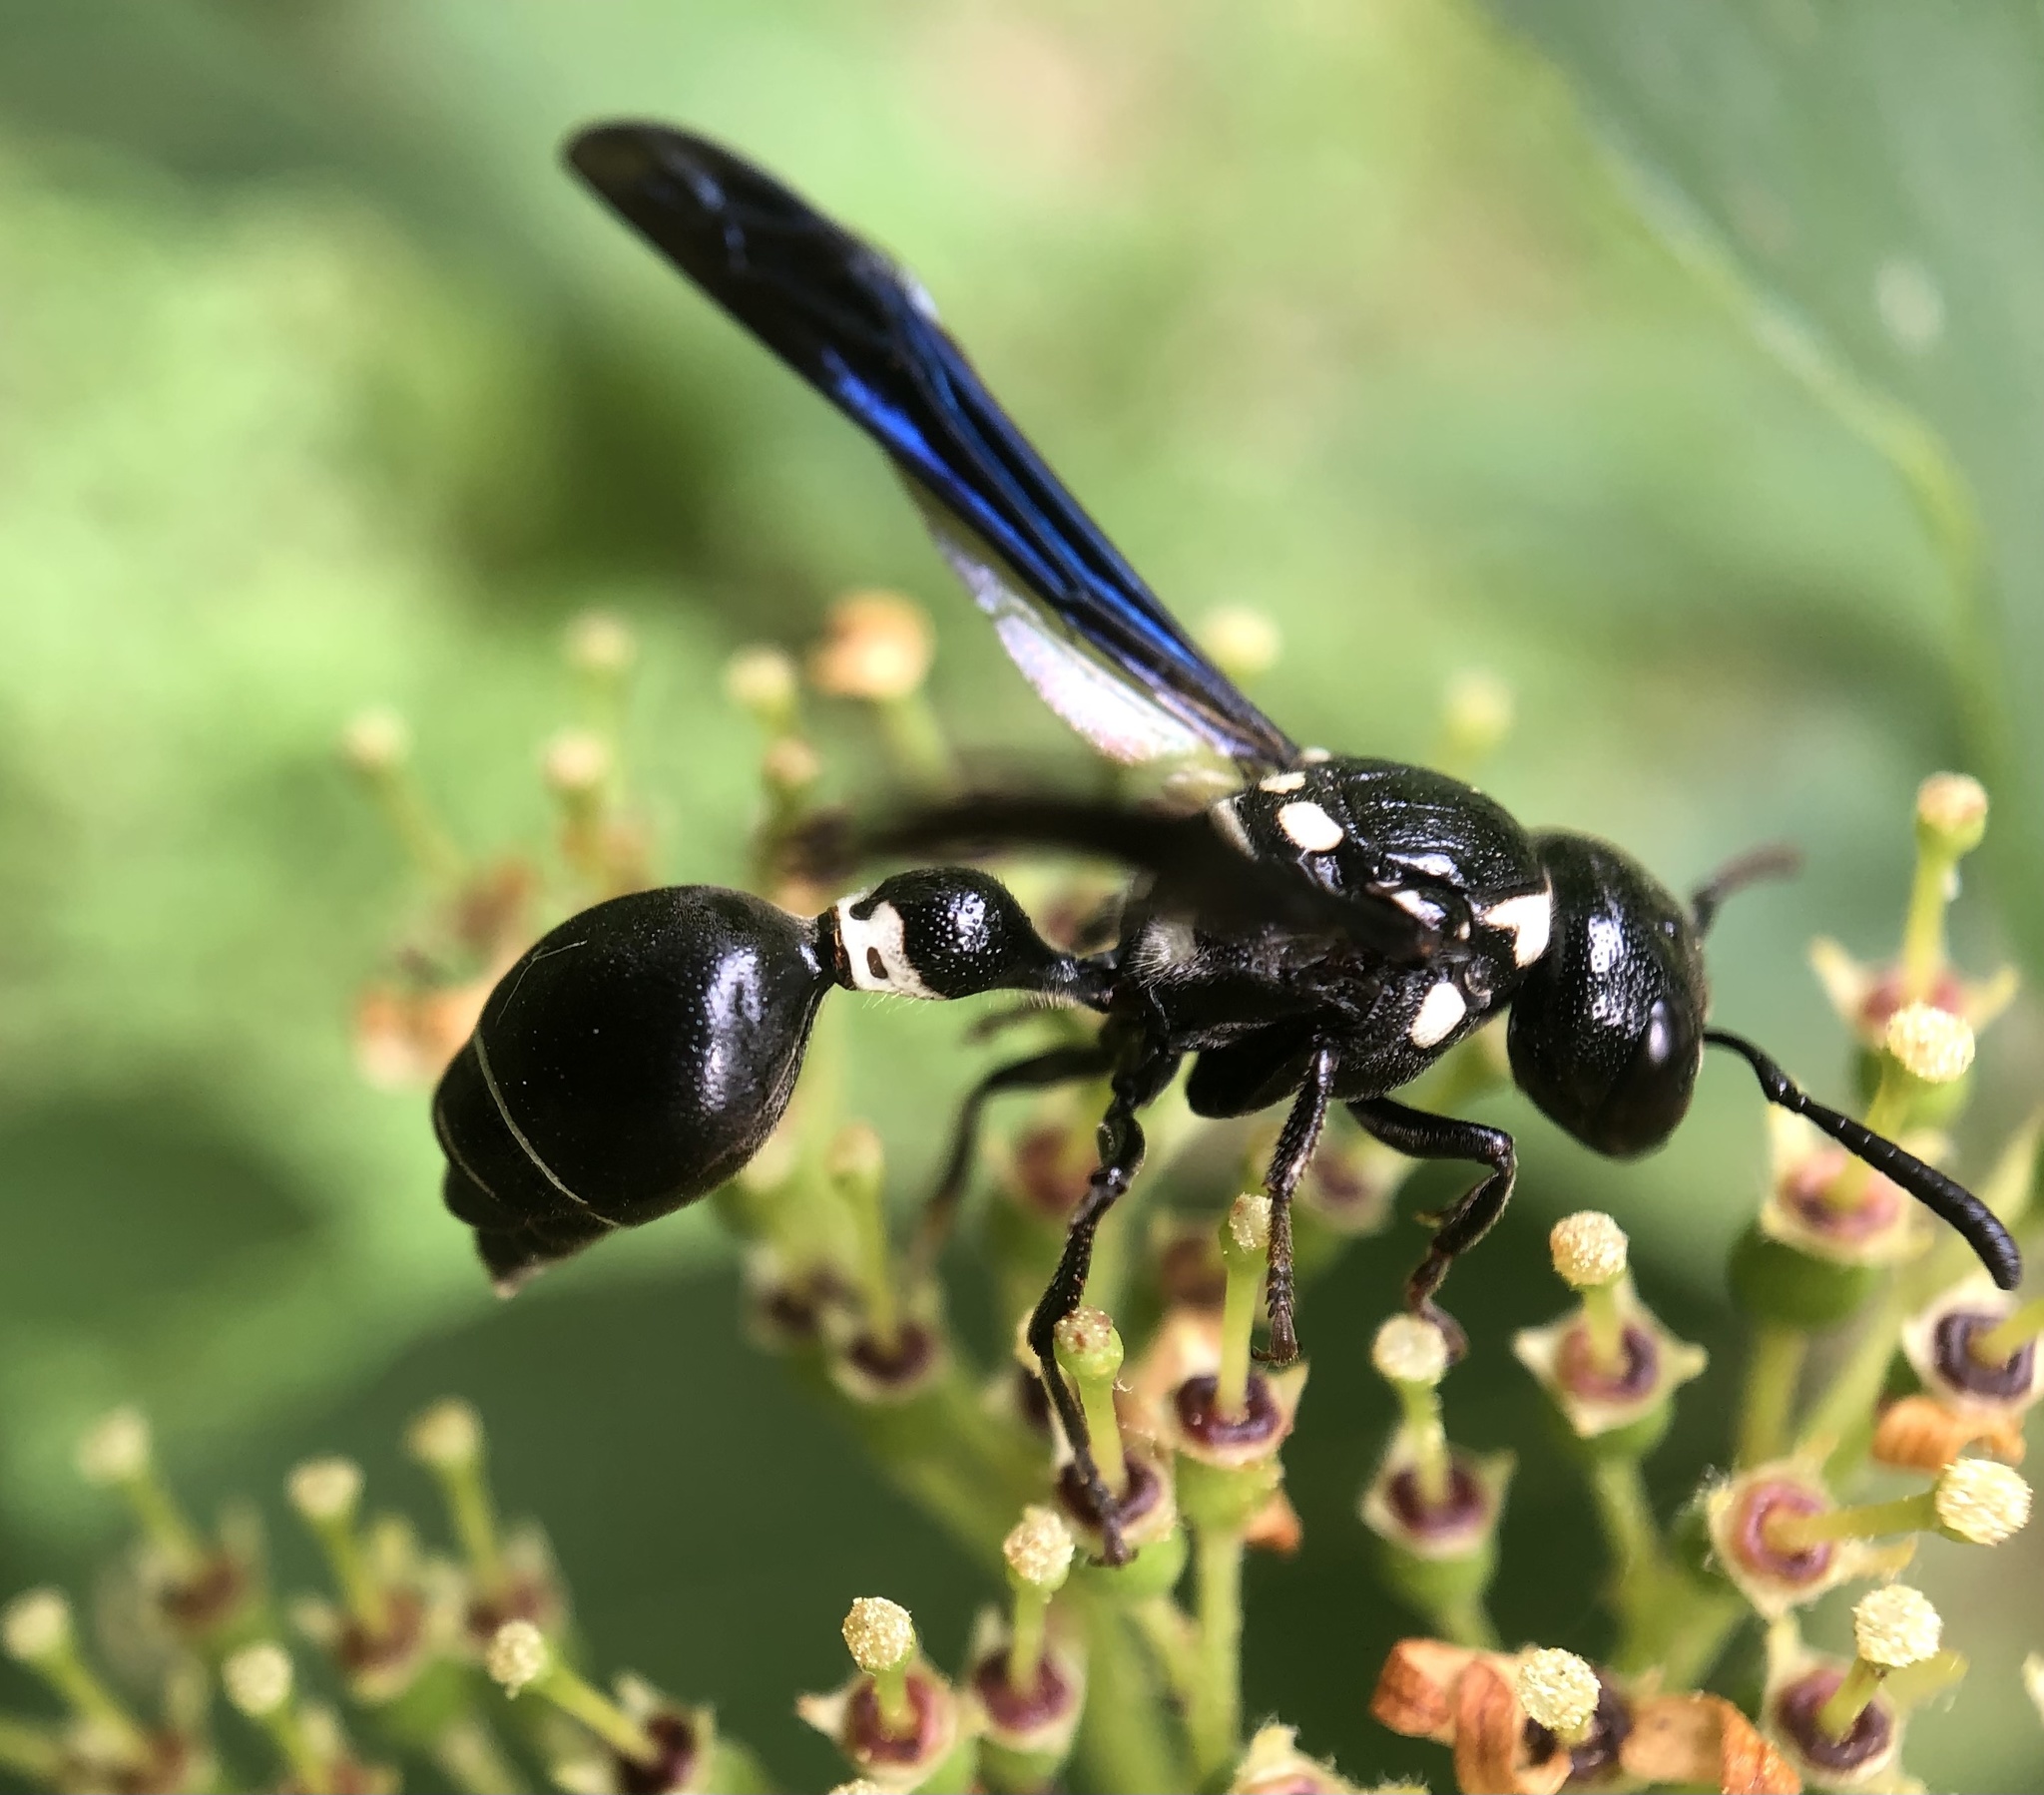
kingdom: Animalia
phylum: Arthropoda
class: Insecta
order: Hymenoptera
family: Eumenidae
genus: Zethus
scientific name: Zethus spinipes
